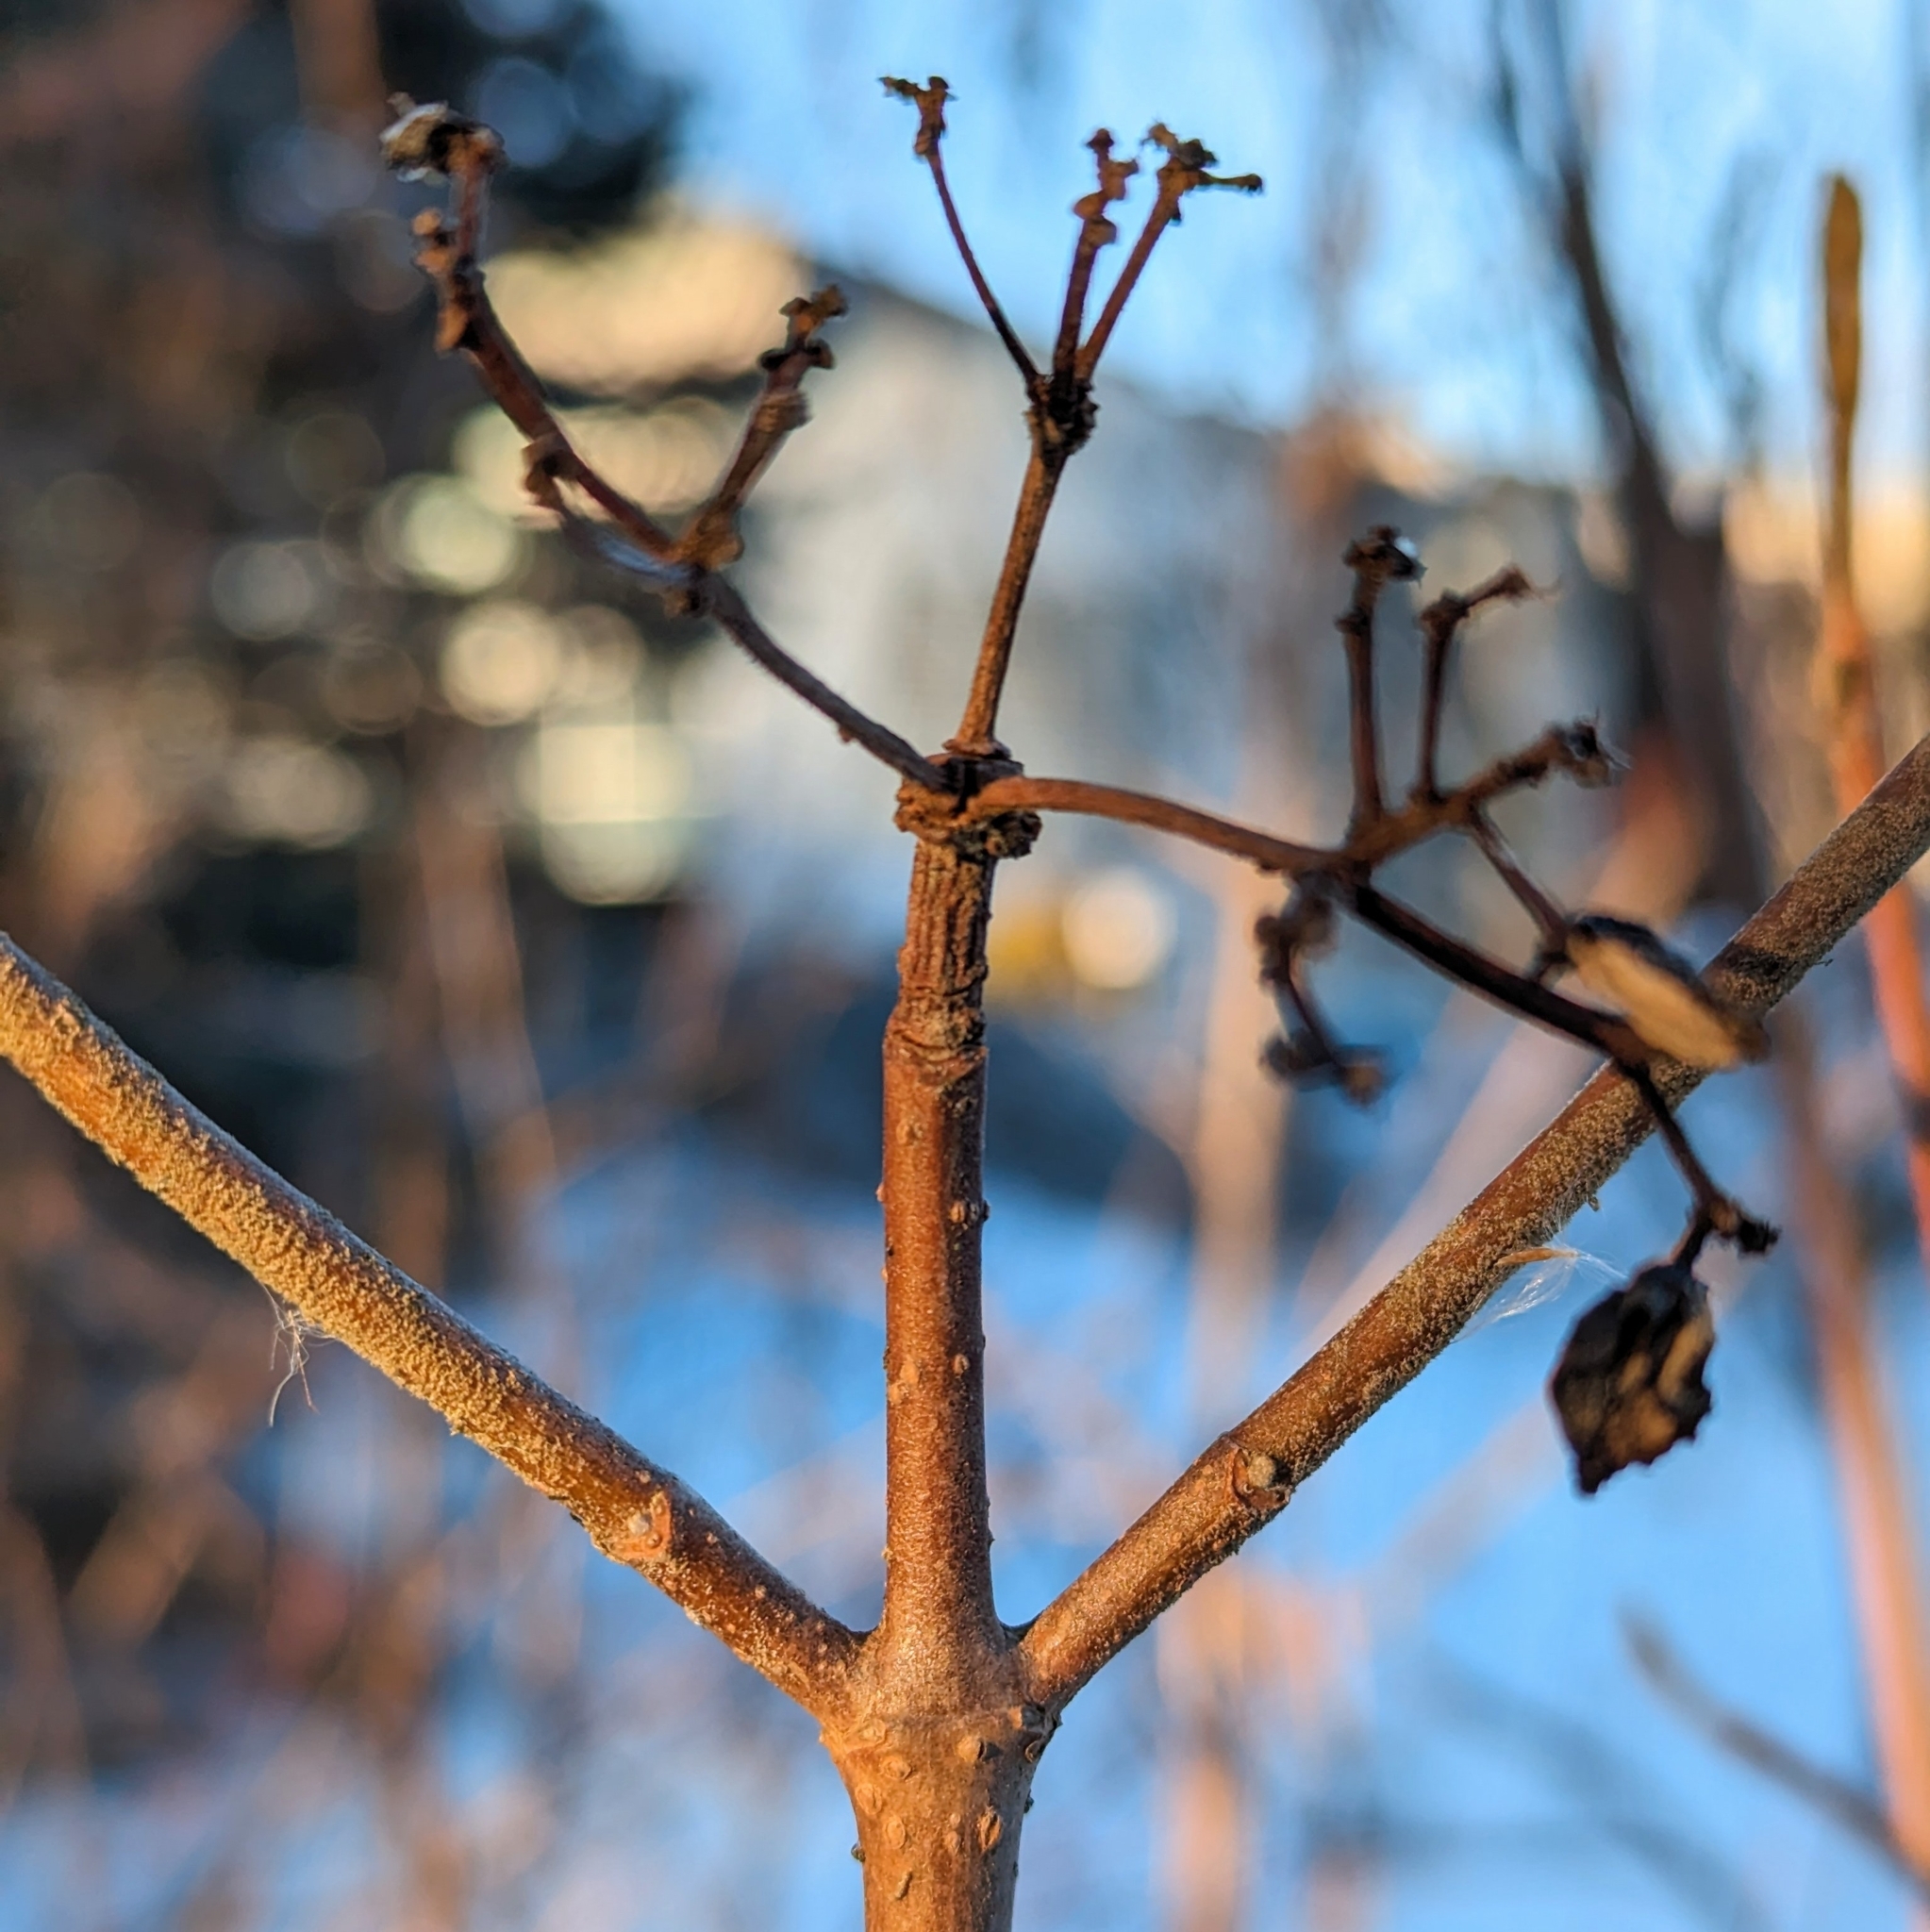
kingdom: Plantae
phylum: Tracheophyta
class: Magnoliopsida
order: Dipsacales
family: Viburnaceae
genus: Viburnum
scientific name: Viburnum lantana
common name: Wayfaring tree
